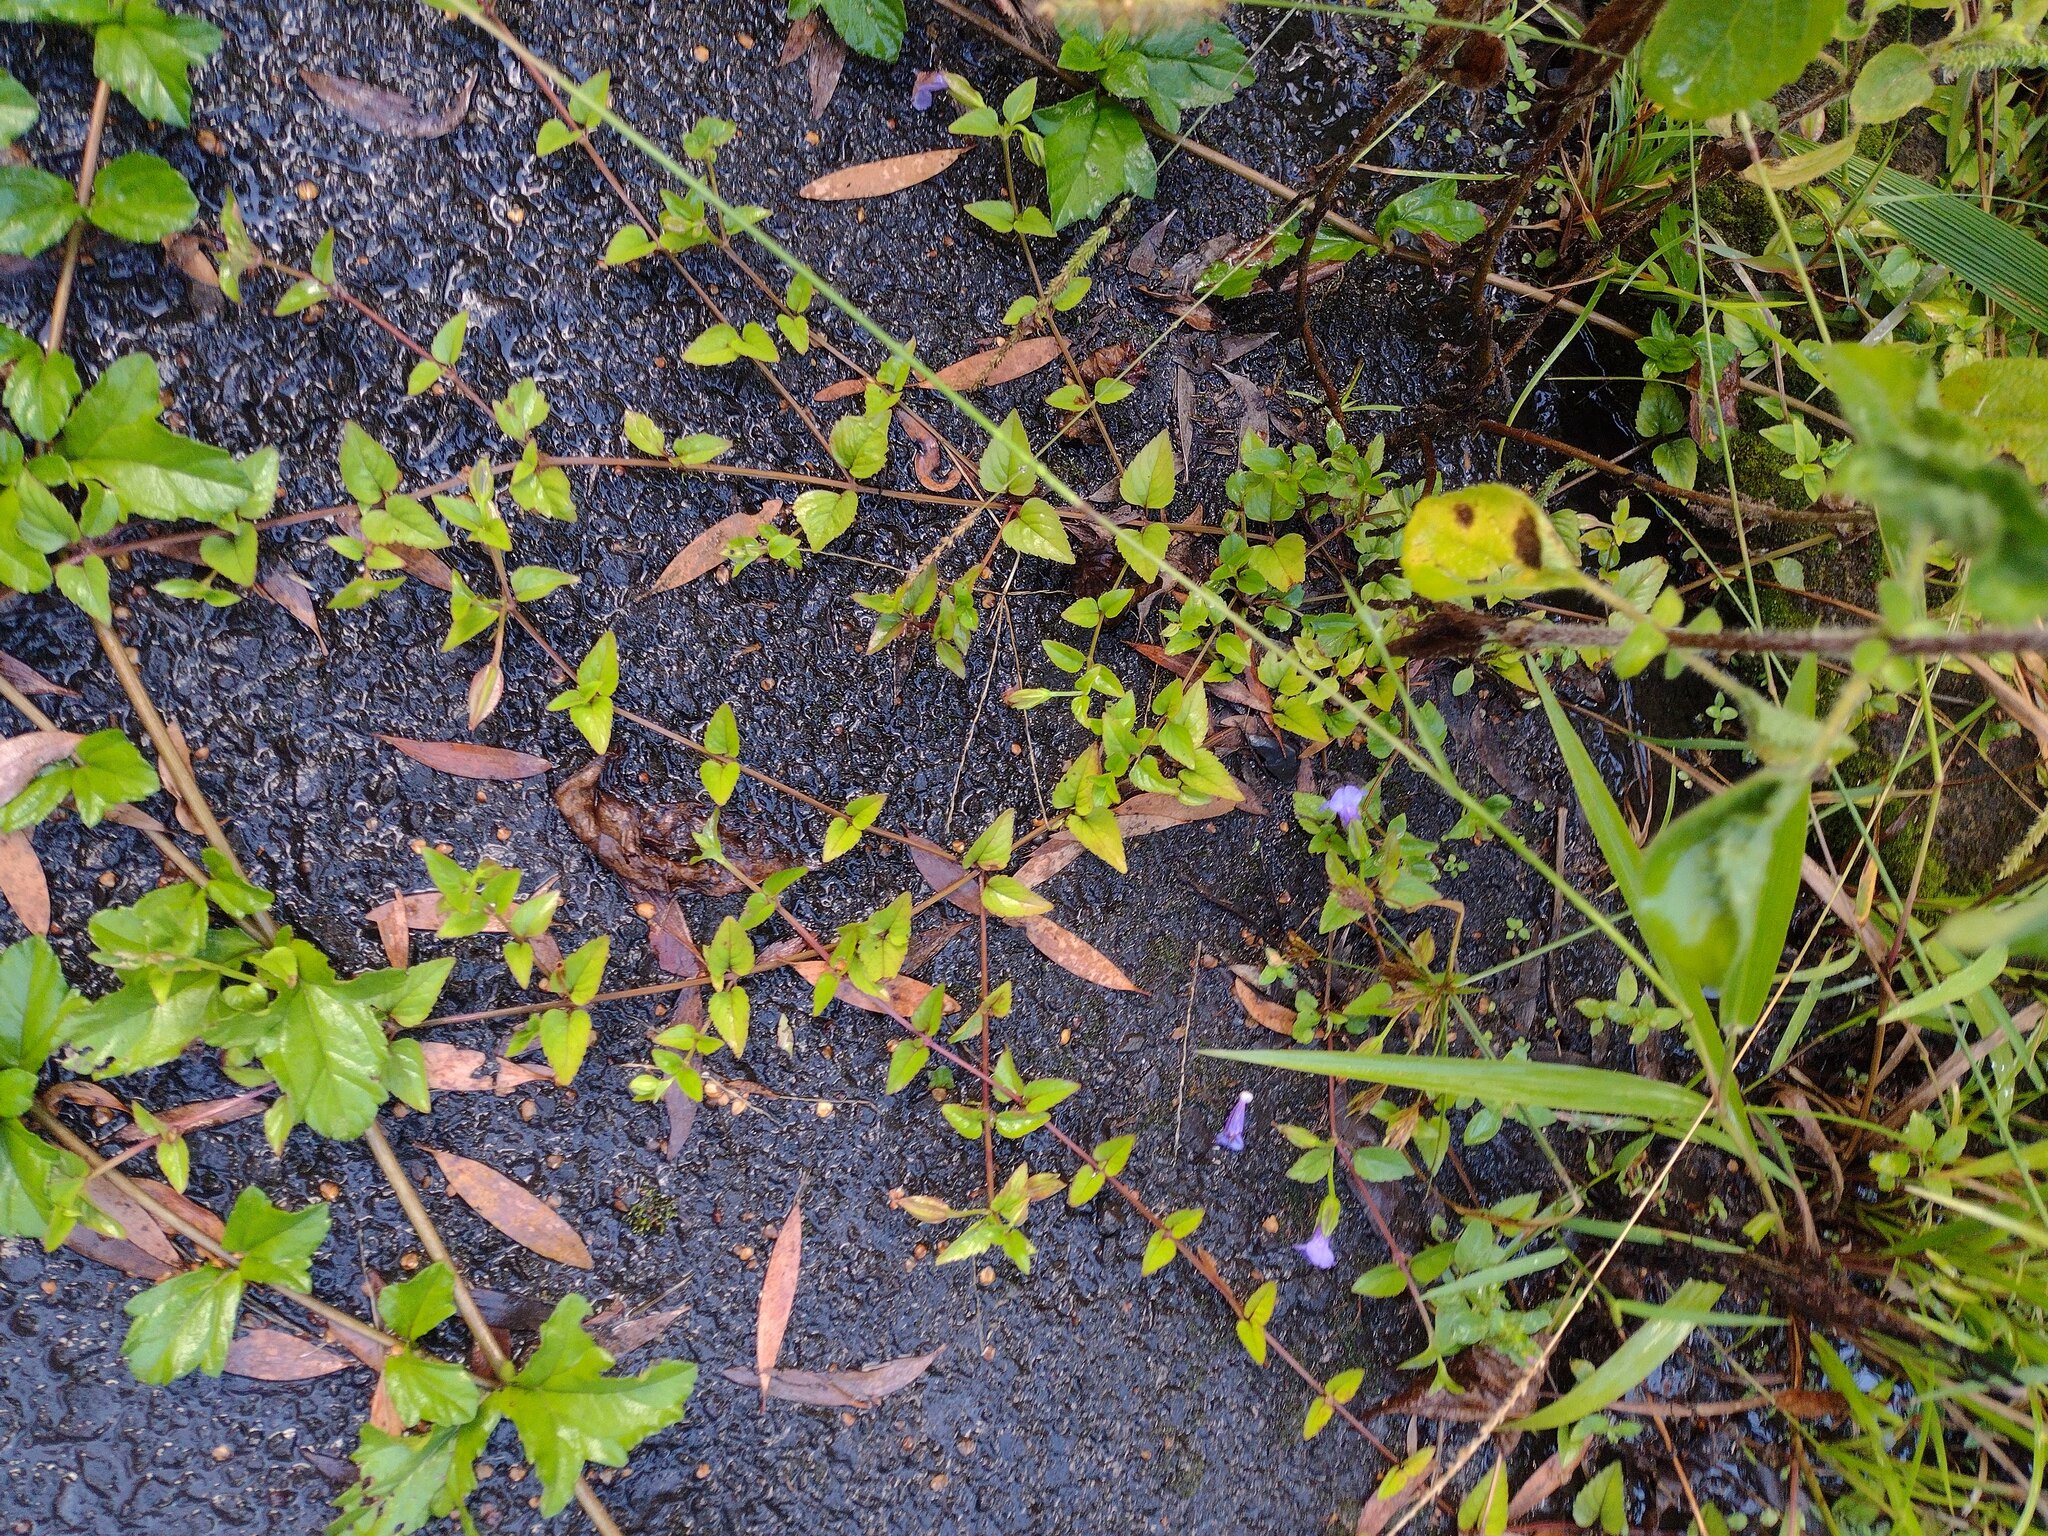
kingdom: Plantae
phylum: Tracheophyta
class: Magnoliopsida
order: Lamiales
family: Linderniaceae
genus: Torenia
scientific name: Torenia asiatica
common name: Wishbone flower
